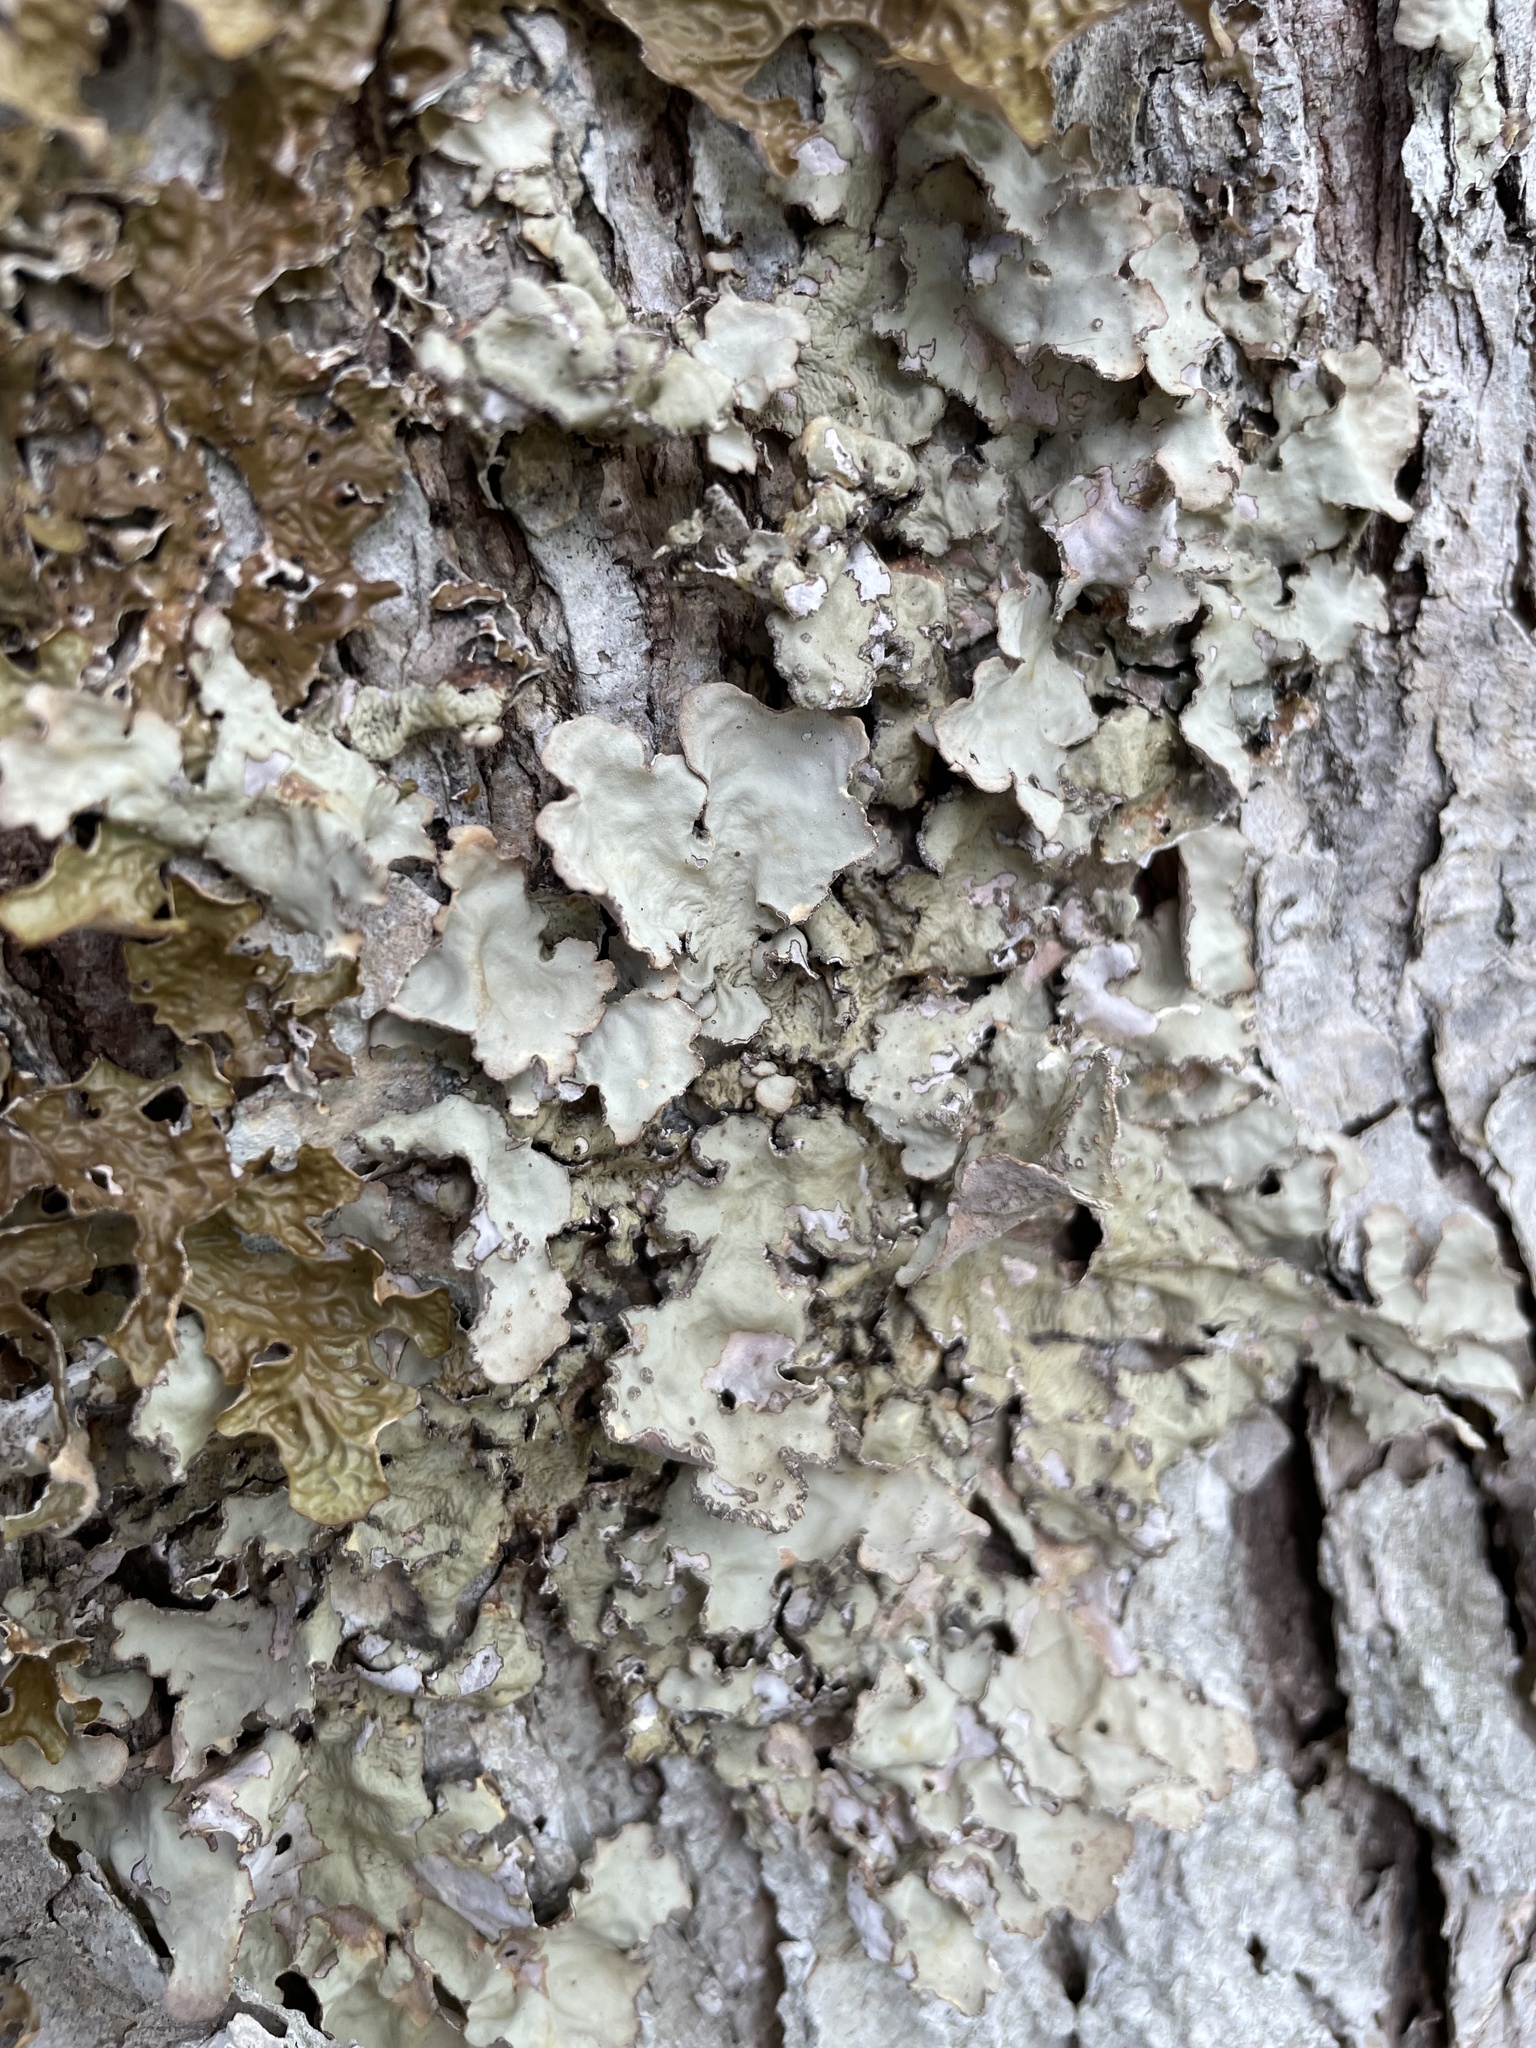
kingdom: Fungi
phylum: Ascomycota
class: Lecanoromycetes
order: Peltigerales
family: Lobariaceae
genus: Lobarina
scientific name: Lobarina scrobiculata
